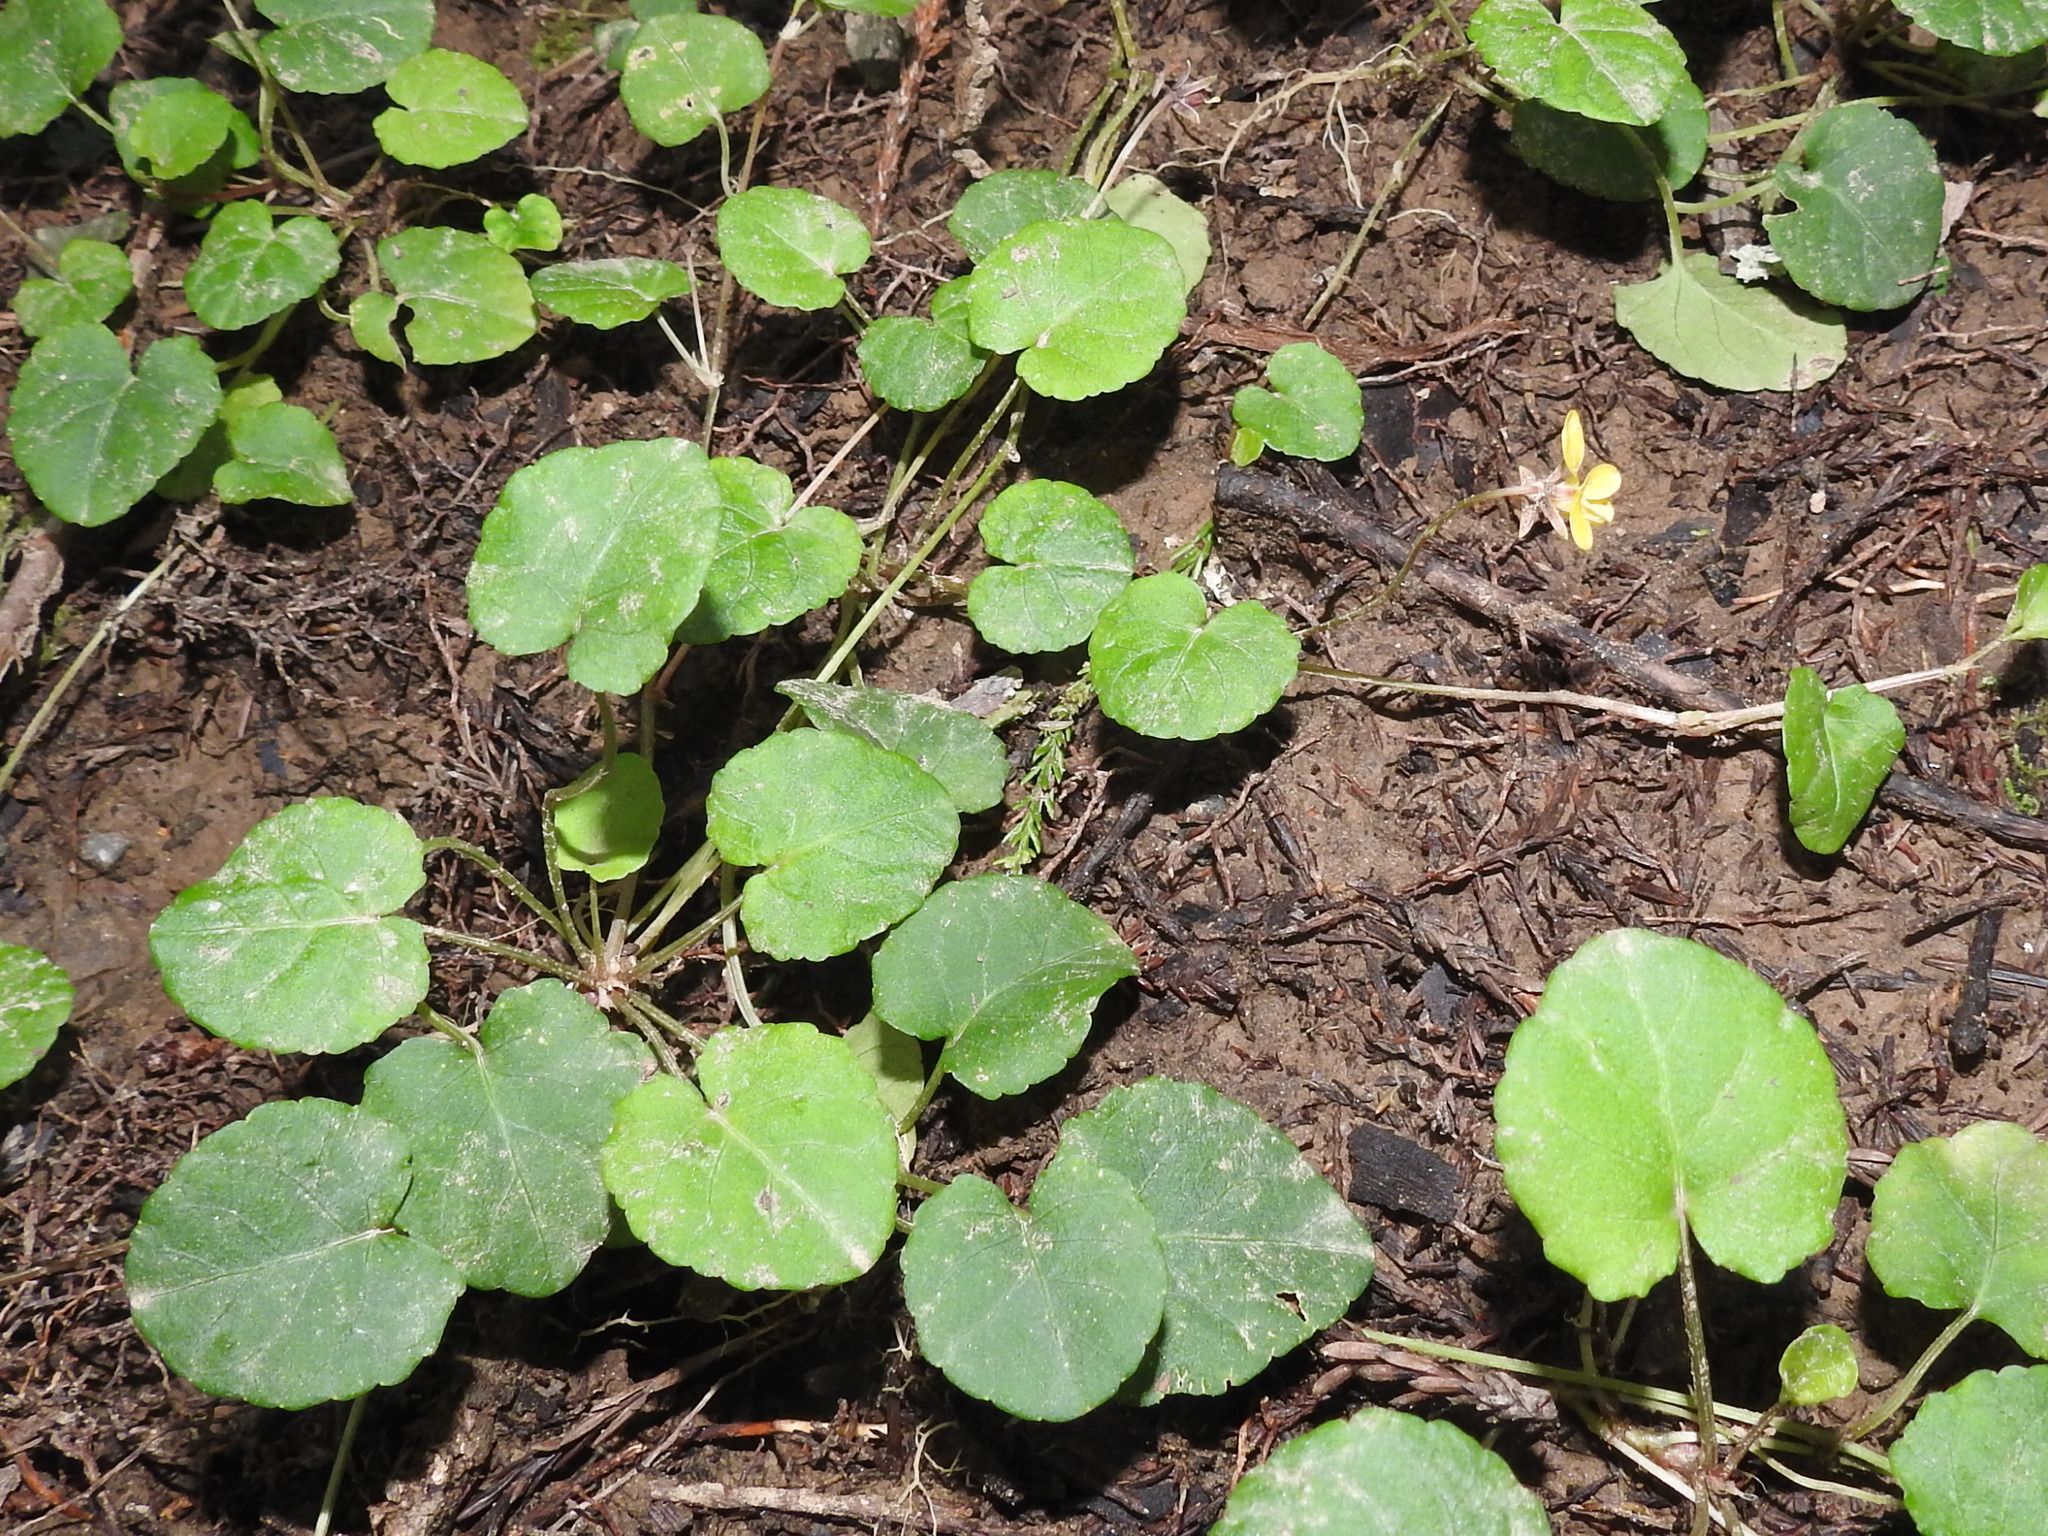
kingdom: Plantae
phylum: Tracheophyta
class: Magnoliopsida
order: Malpighiales
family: Violaceae
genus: Viola
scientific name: Viola sempervirens
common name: Evergreen violet
